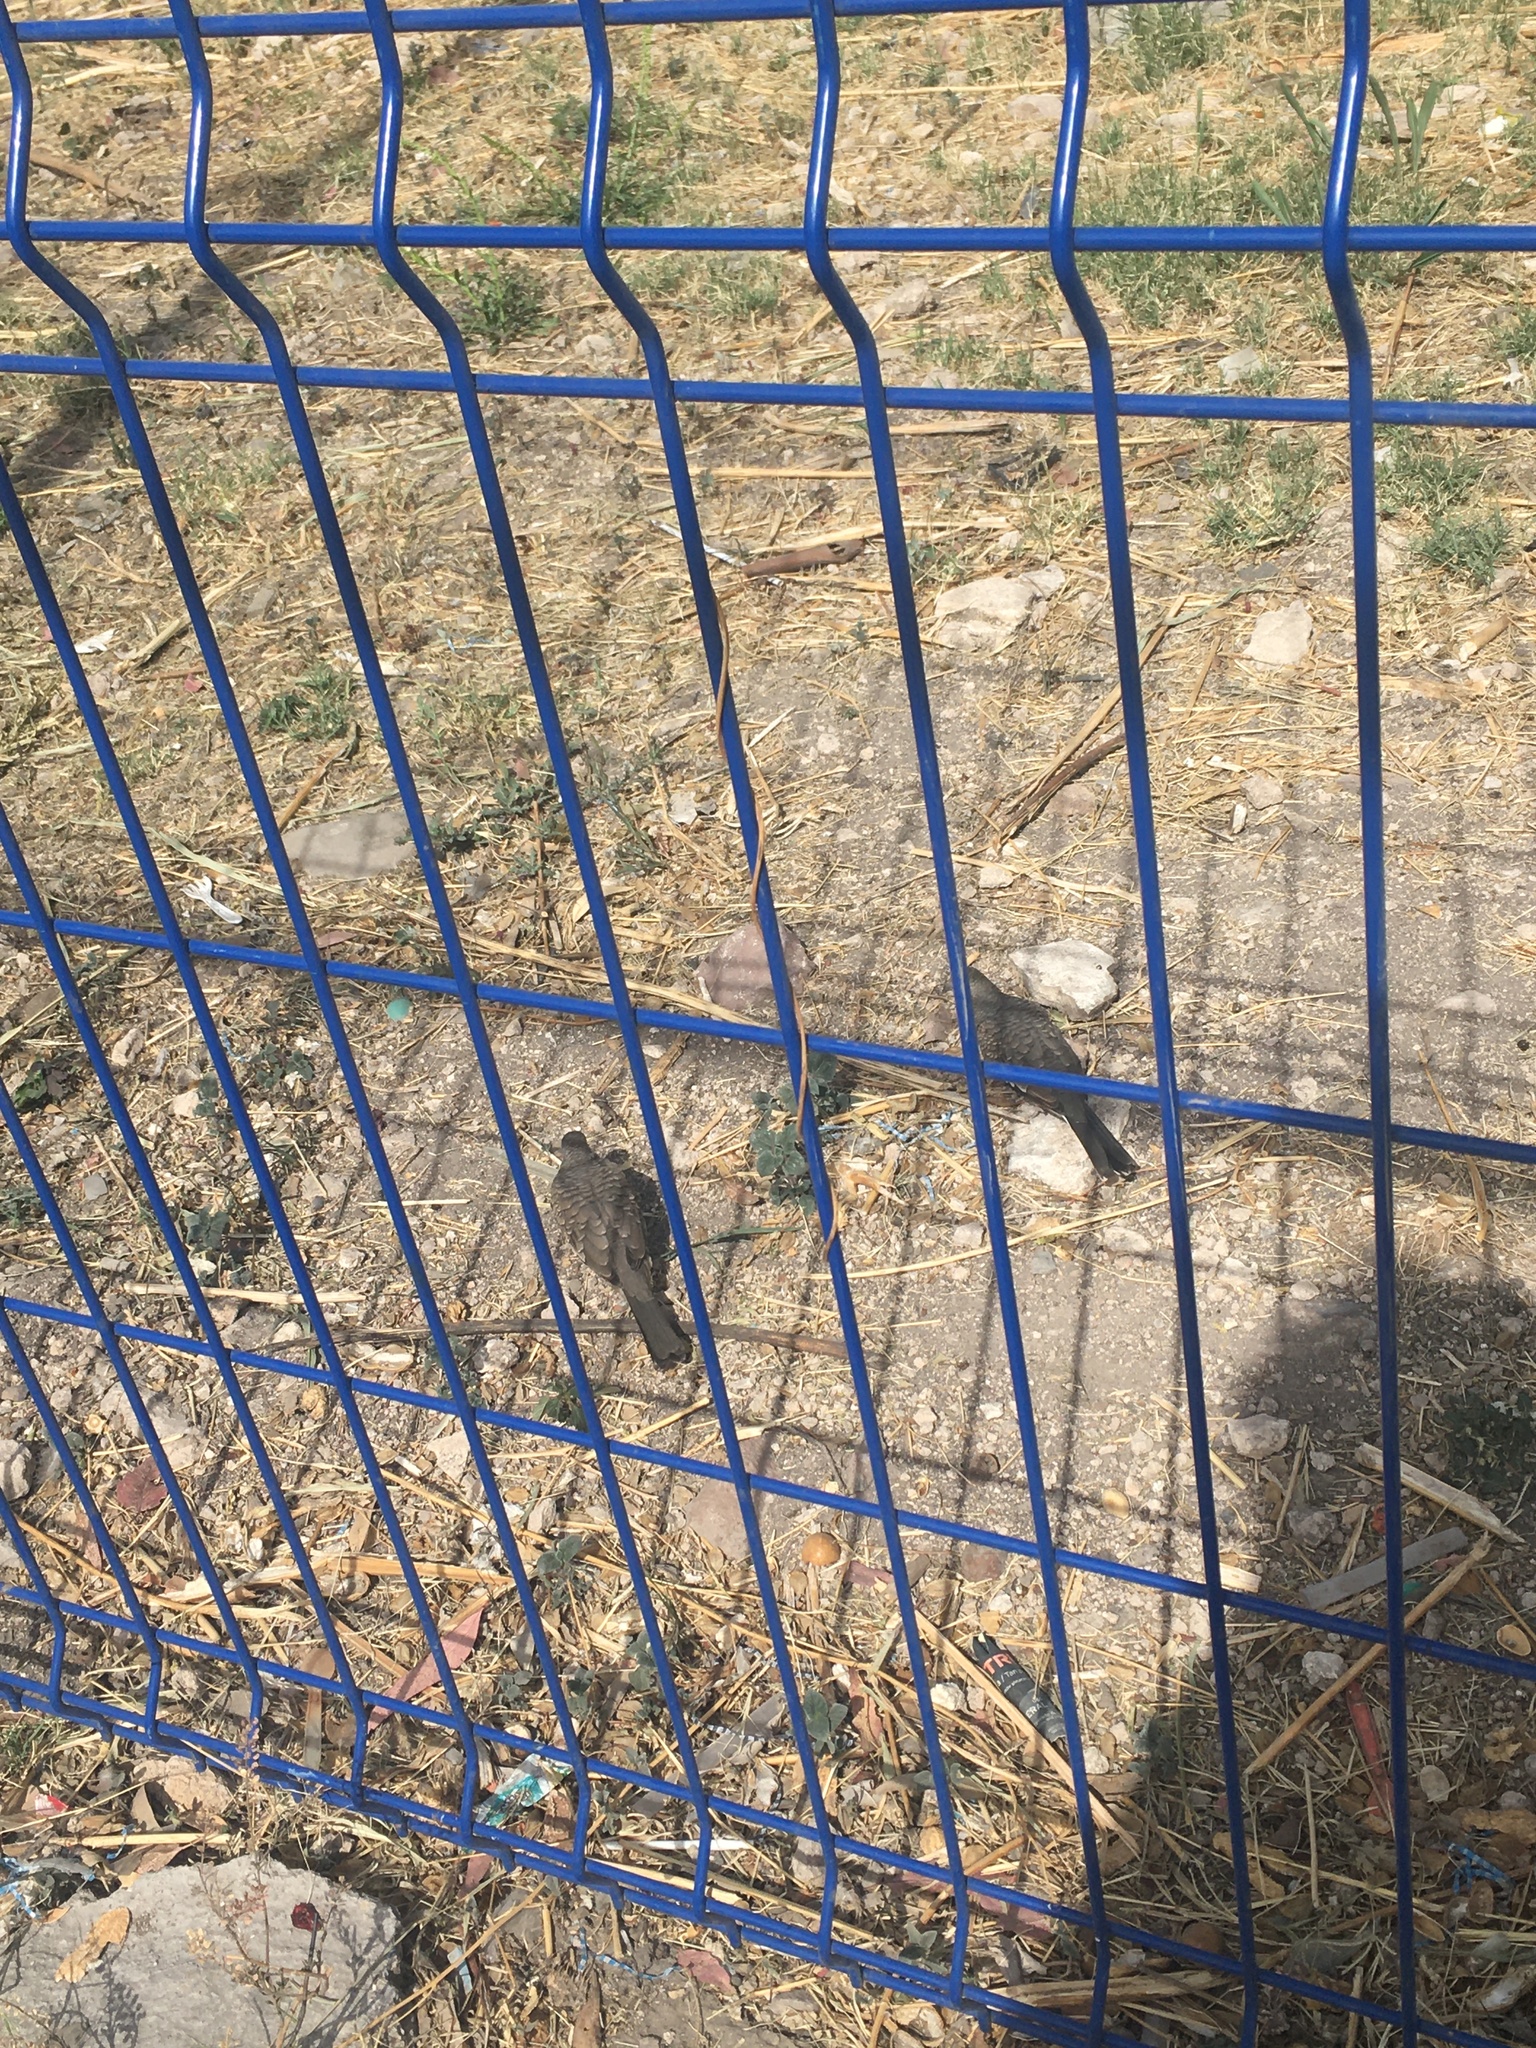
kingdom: Animalia
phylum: Chordata
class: Aves
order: Columbiformes
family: Columbidae
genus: Columbina
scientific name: Columbina inca
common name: Inca dove
